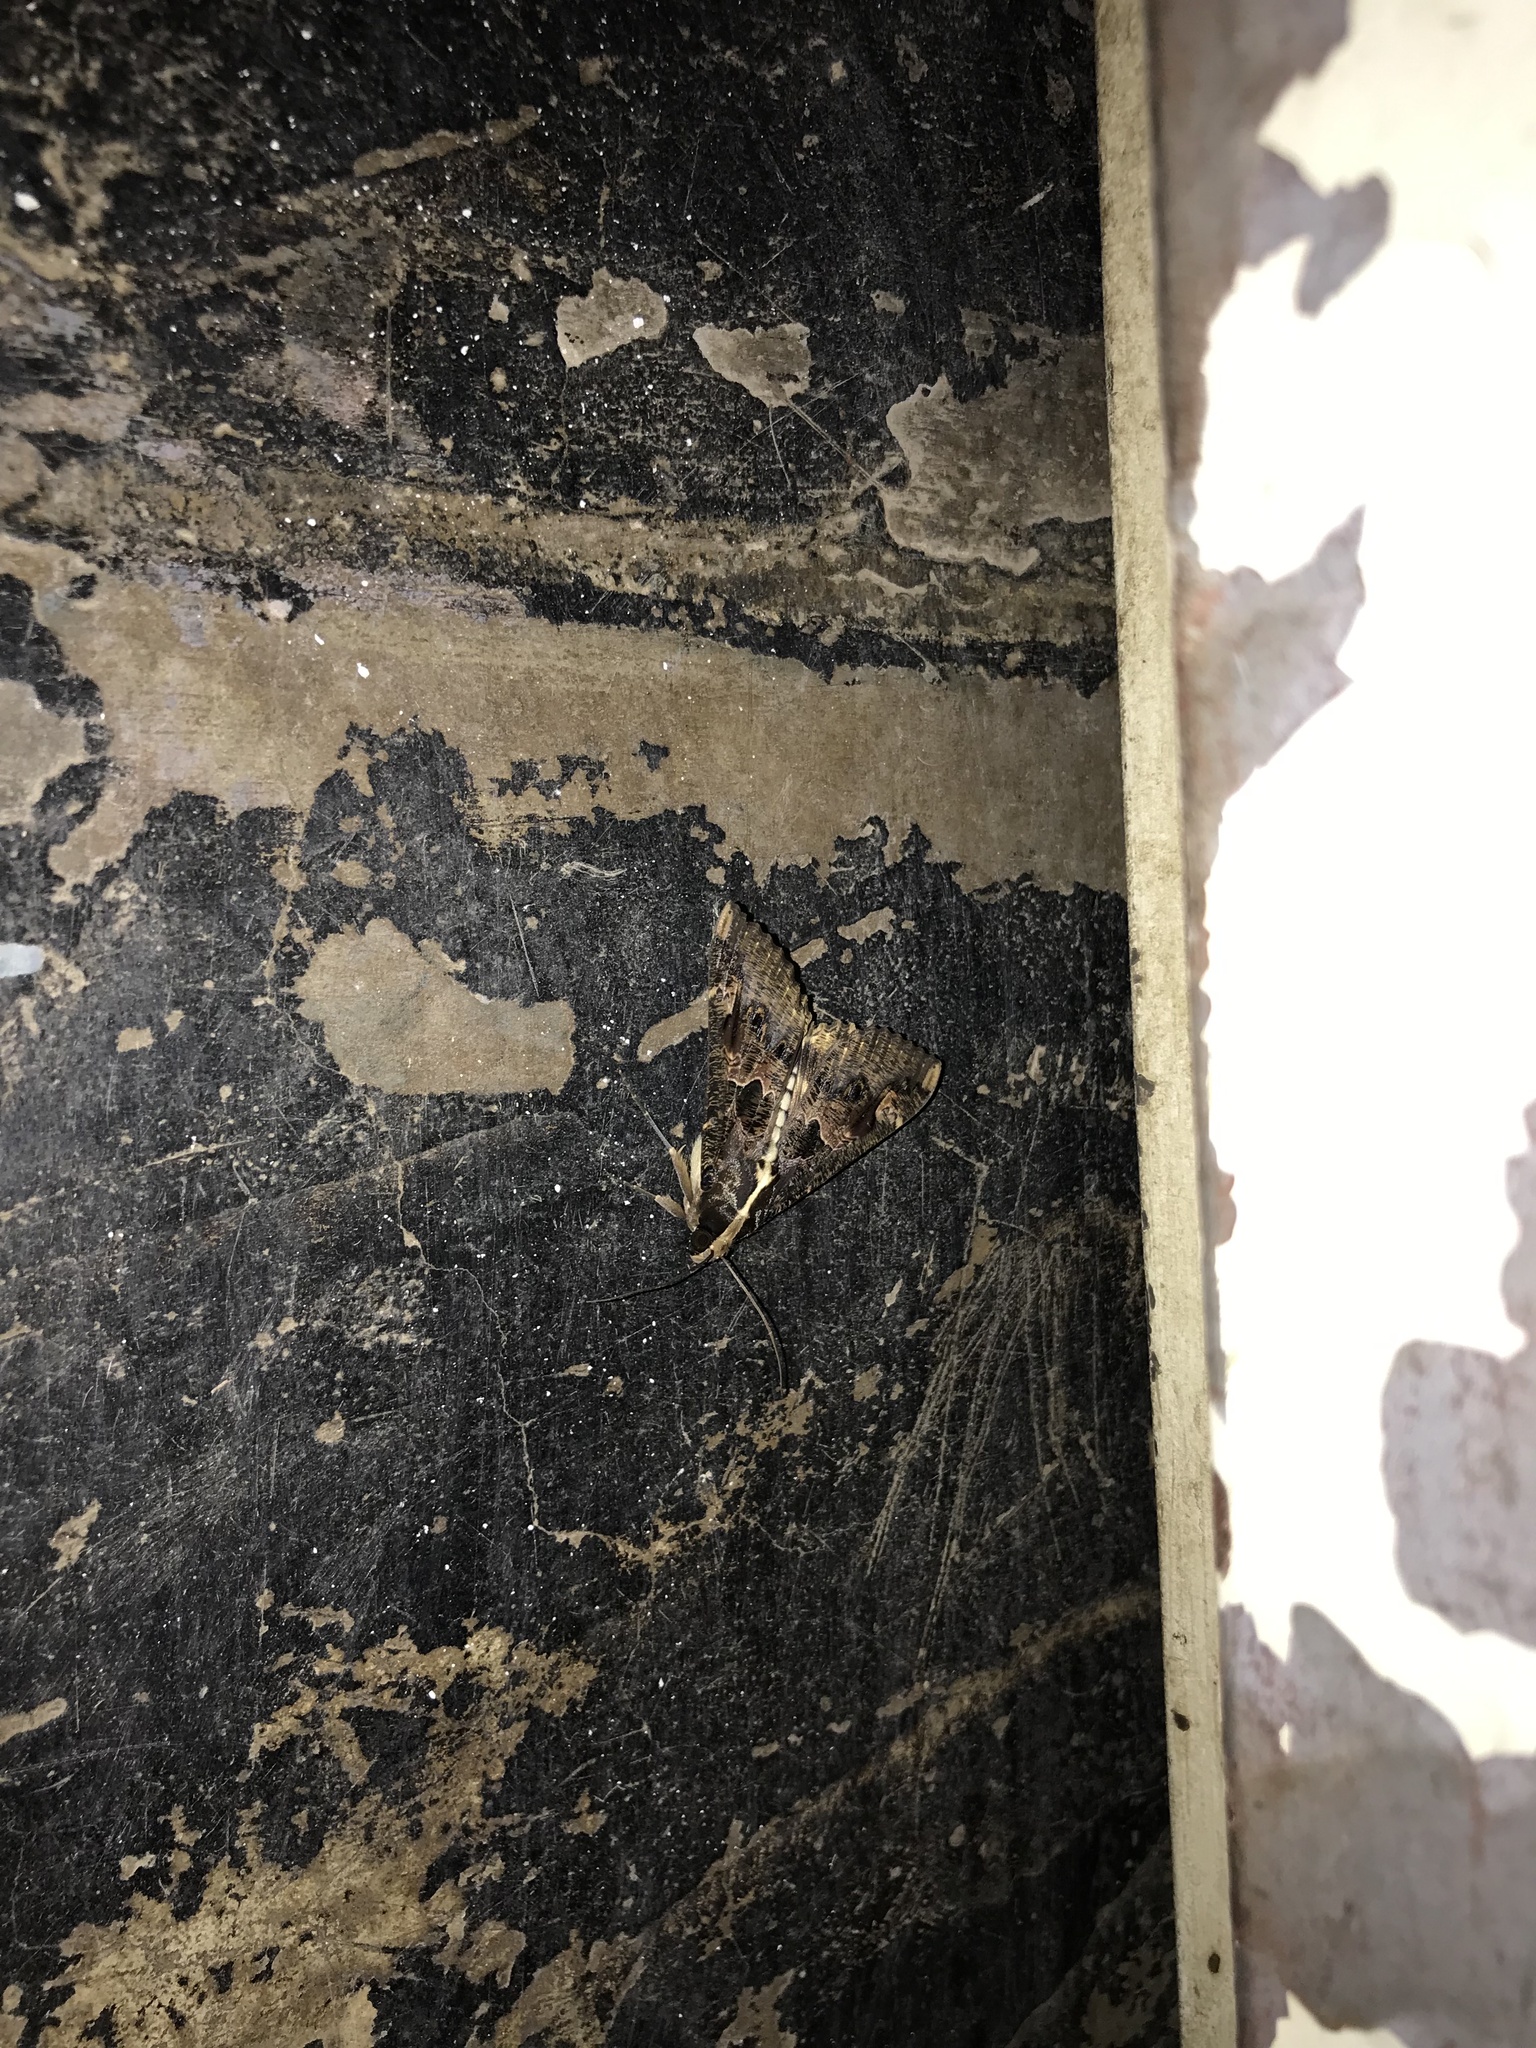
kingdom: Animalia
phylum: Arthropoda
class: Insecta
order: Lepidoptera
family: Erebidae
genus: Sphingomorpha
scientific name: Sphingomorpha chlorea
